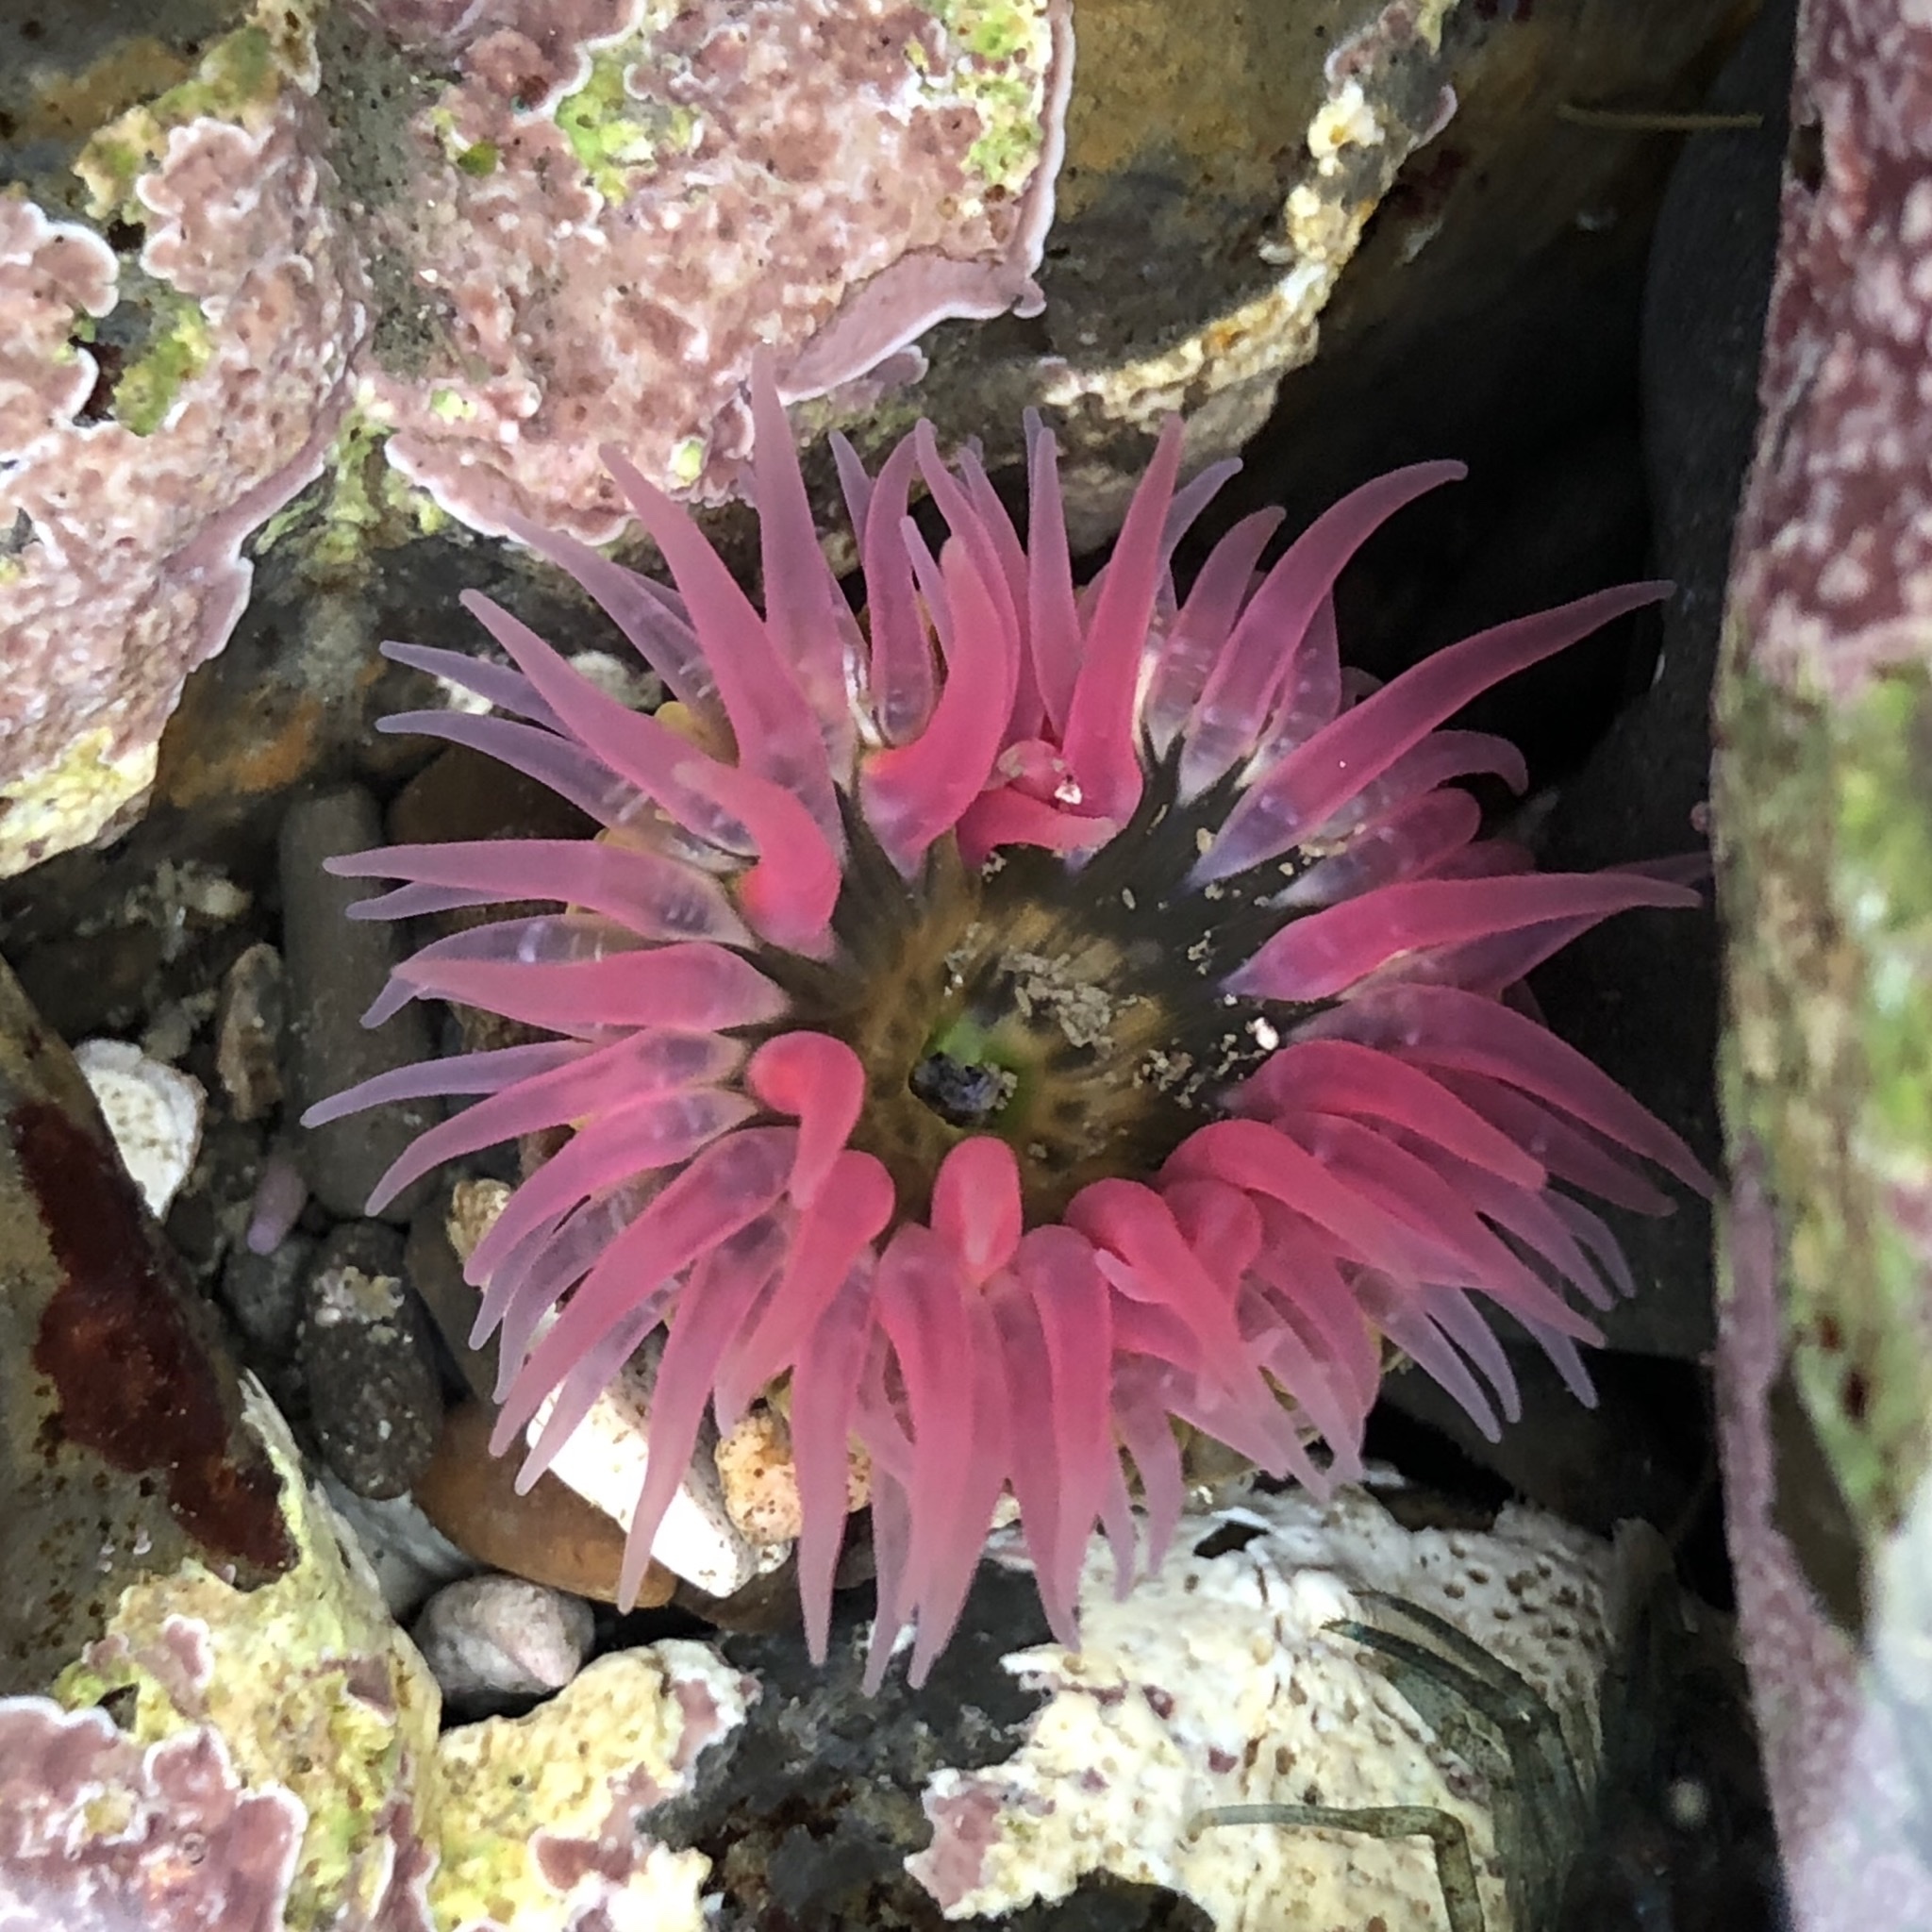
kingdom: Animalia
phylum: Cnidaria
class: Anthozoa
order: Actiniaria
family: Actiniidae
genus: Anthopleura
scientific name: Anthopleura artemisia
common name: Buried sea anemone
